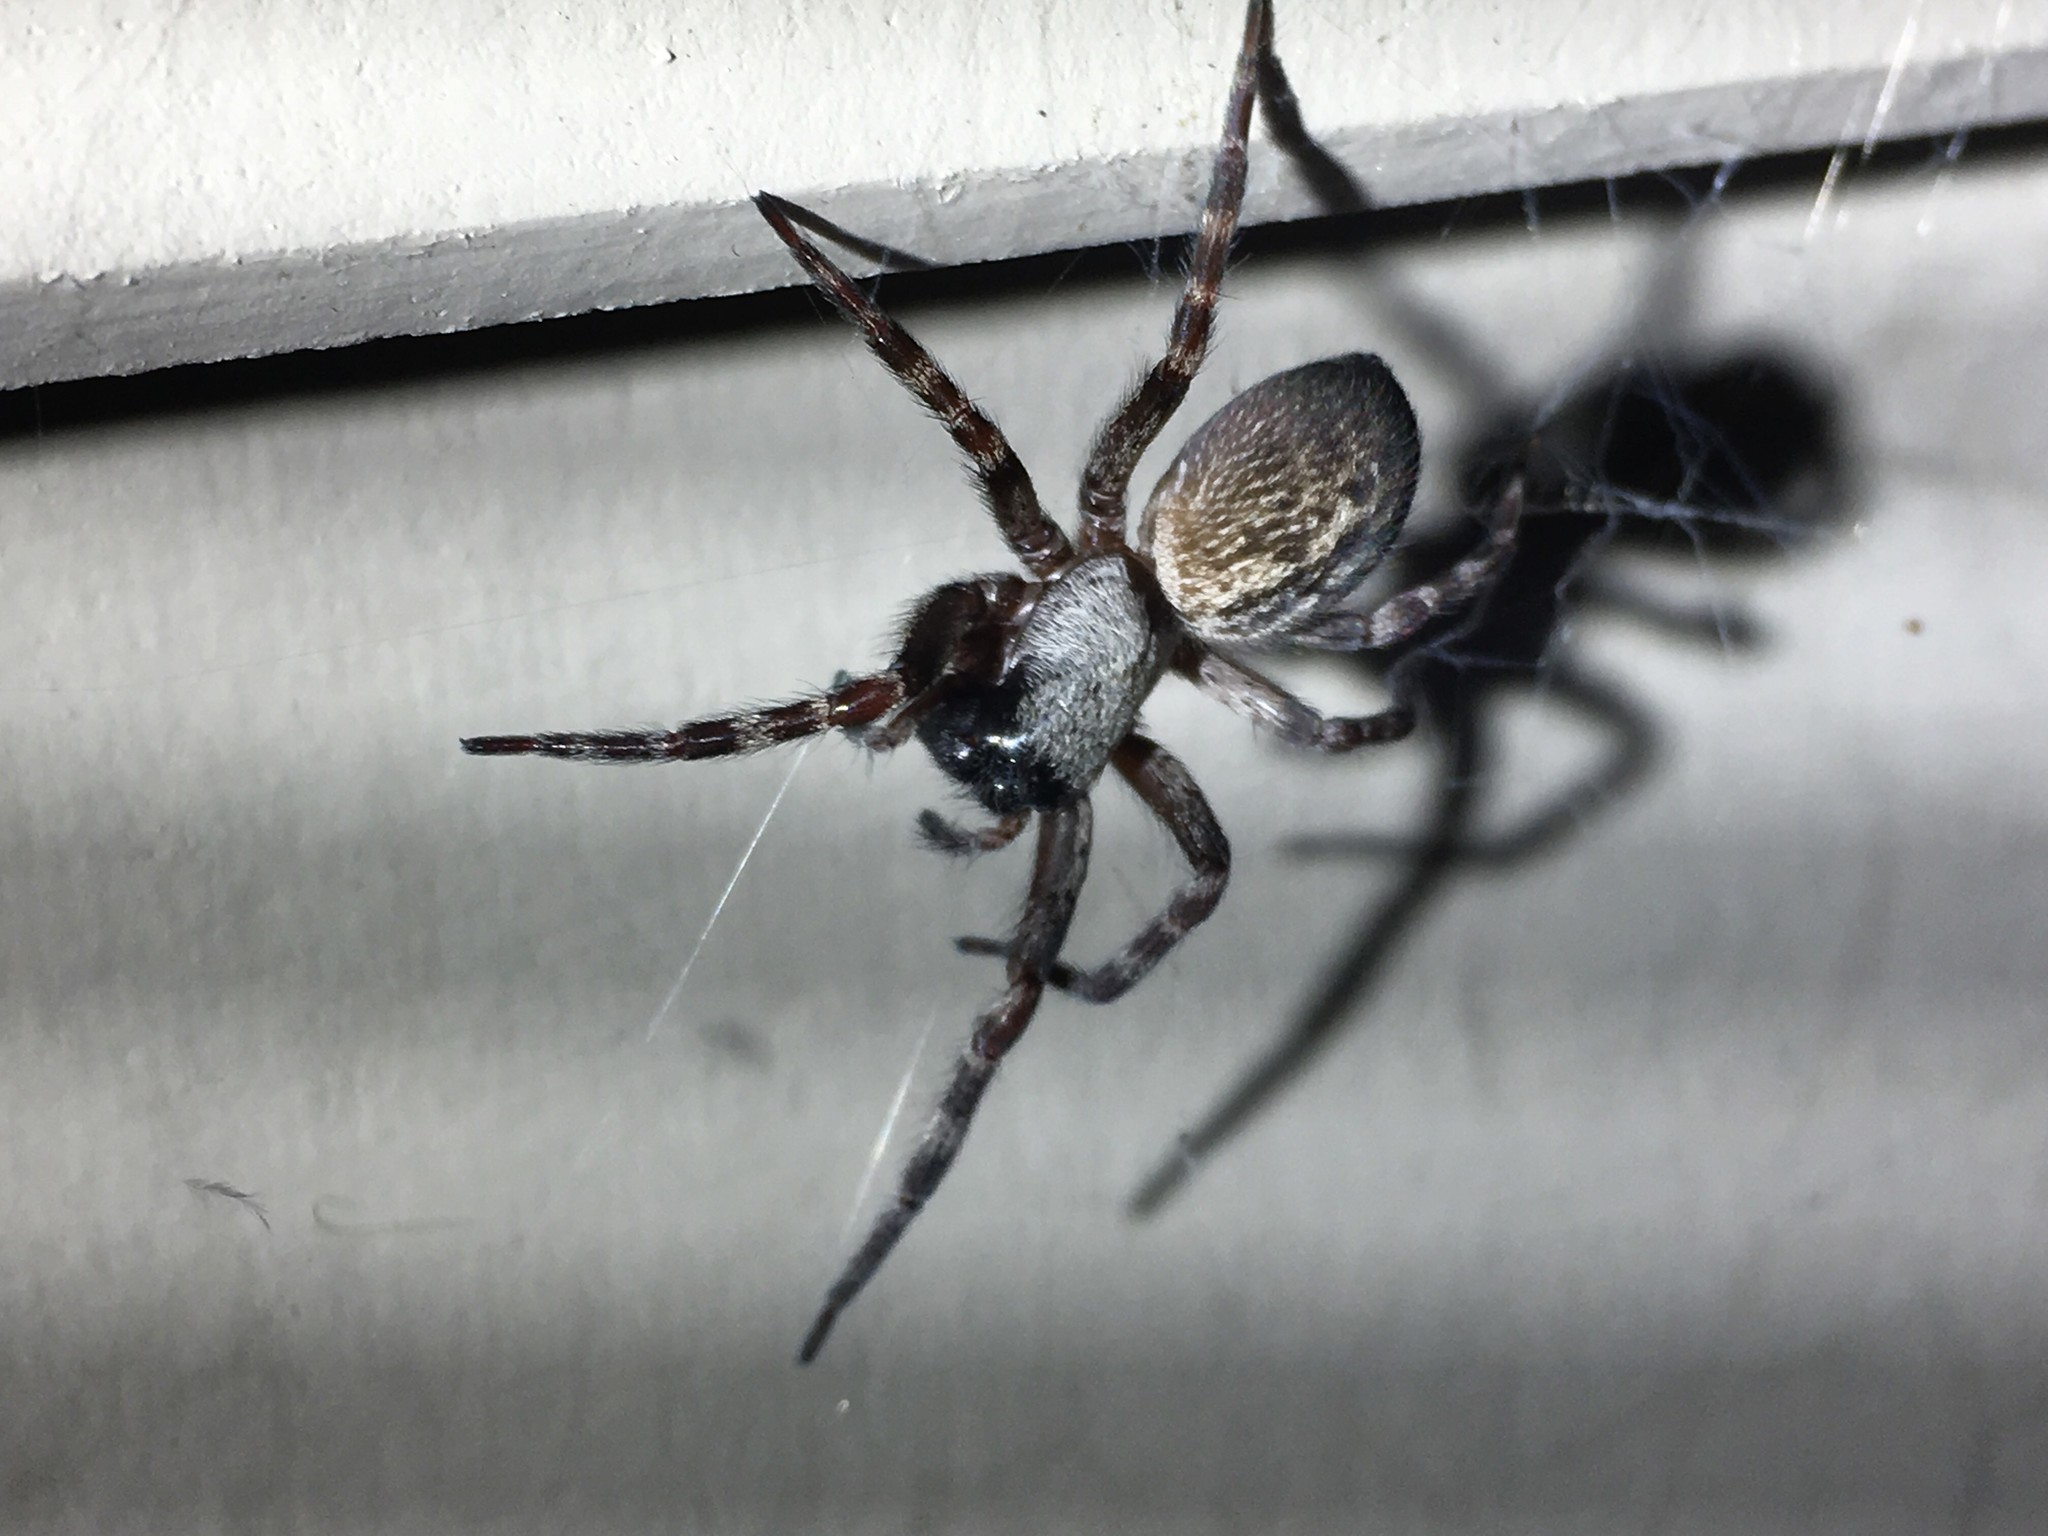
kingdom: Animalia
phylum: Arthropoda
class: Arachnida
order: Araneae
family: Desidae
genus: Badumna
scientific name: Badumna longinqua
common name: Gray house spider
